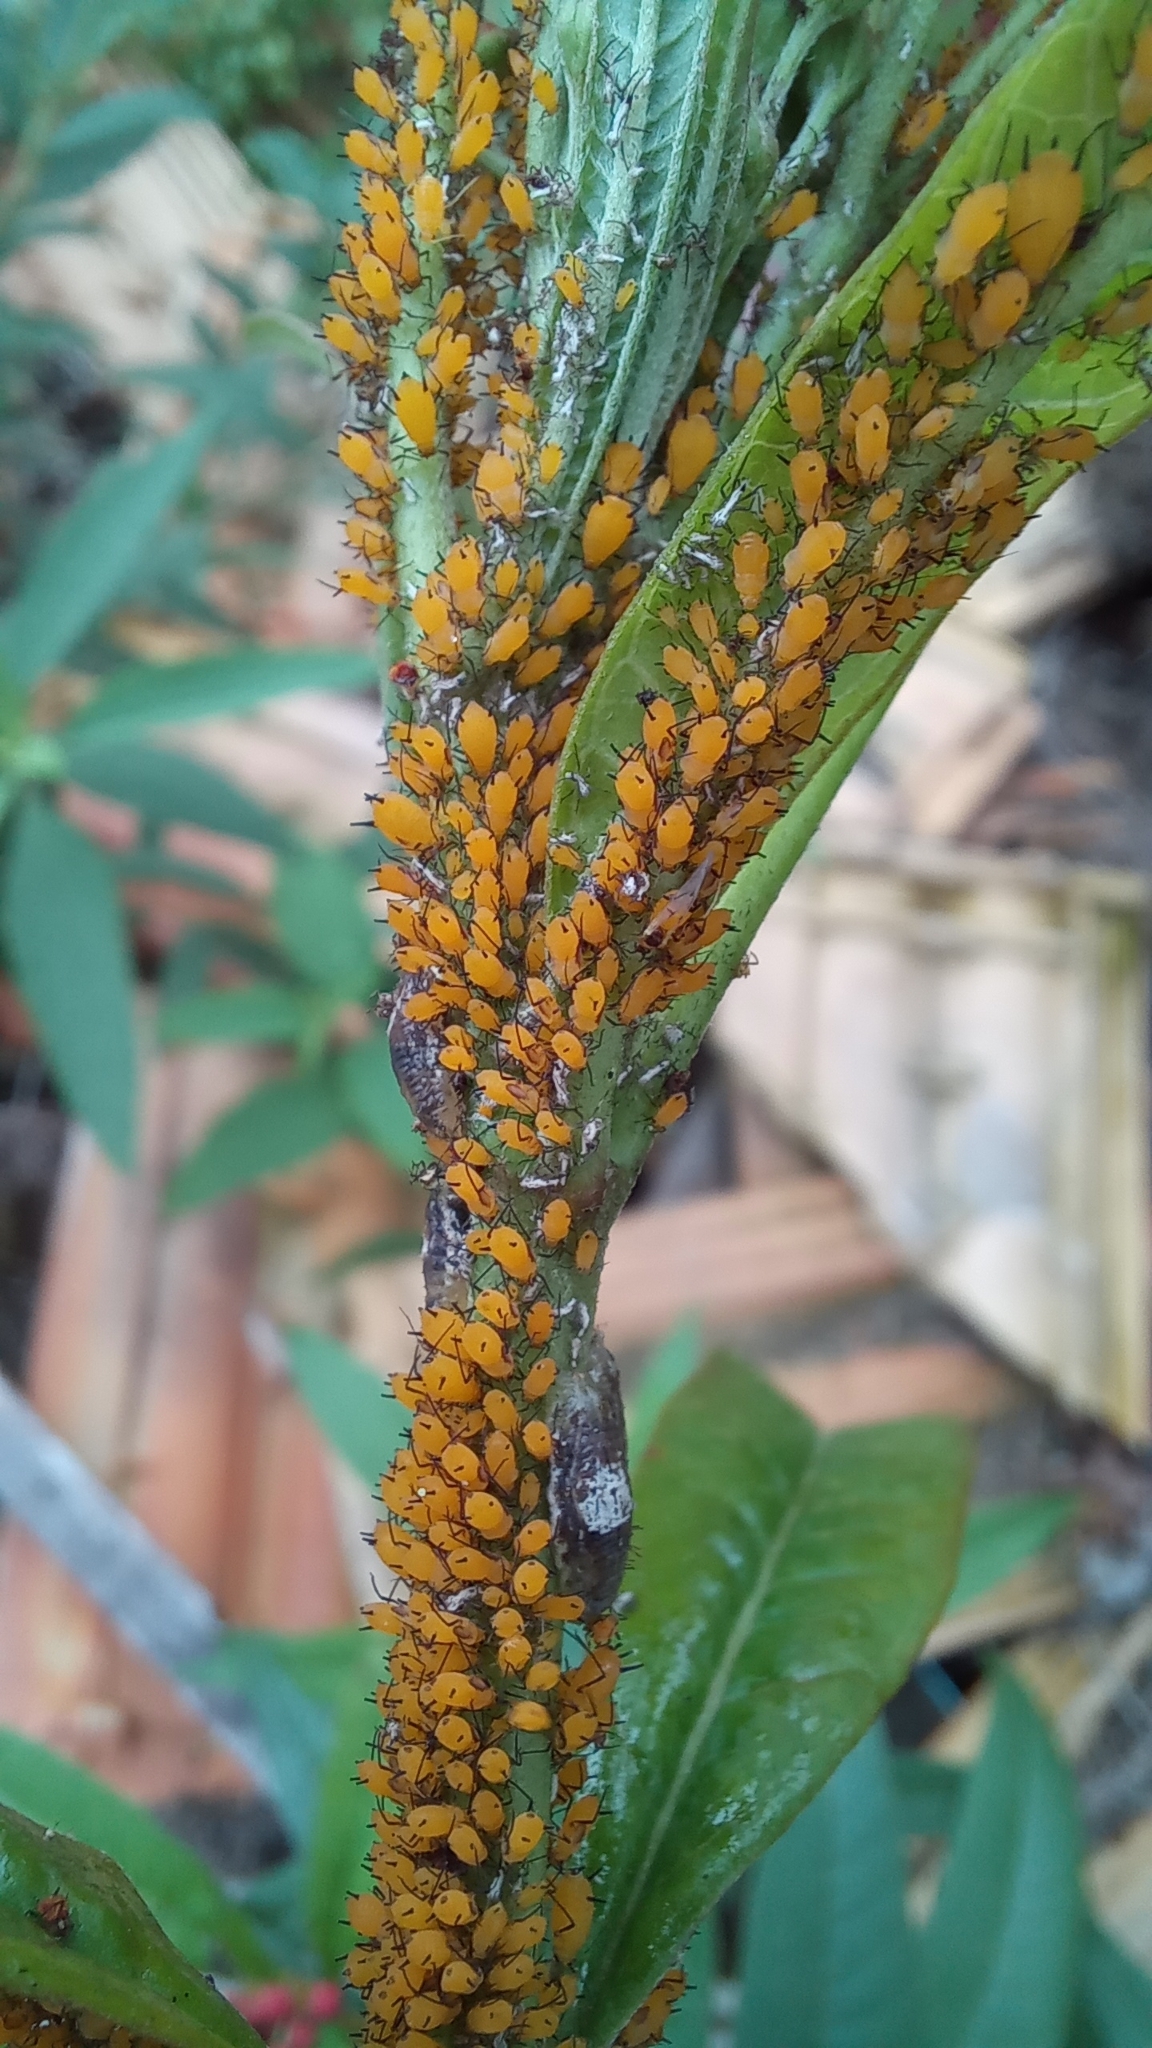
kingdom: Animalia
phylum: Arthropoda
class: Insecta
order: Hemiptera
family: Aphididae
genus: Aphis
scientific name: Aphis nerii
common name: Oleander aphid
